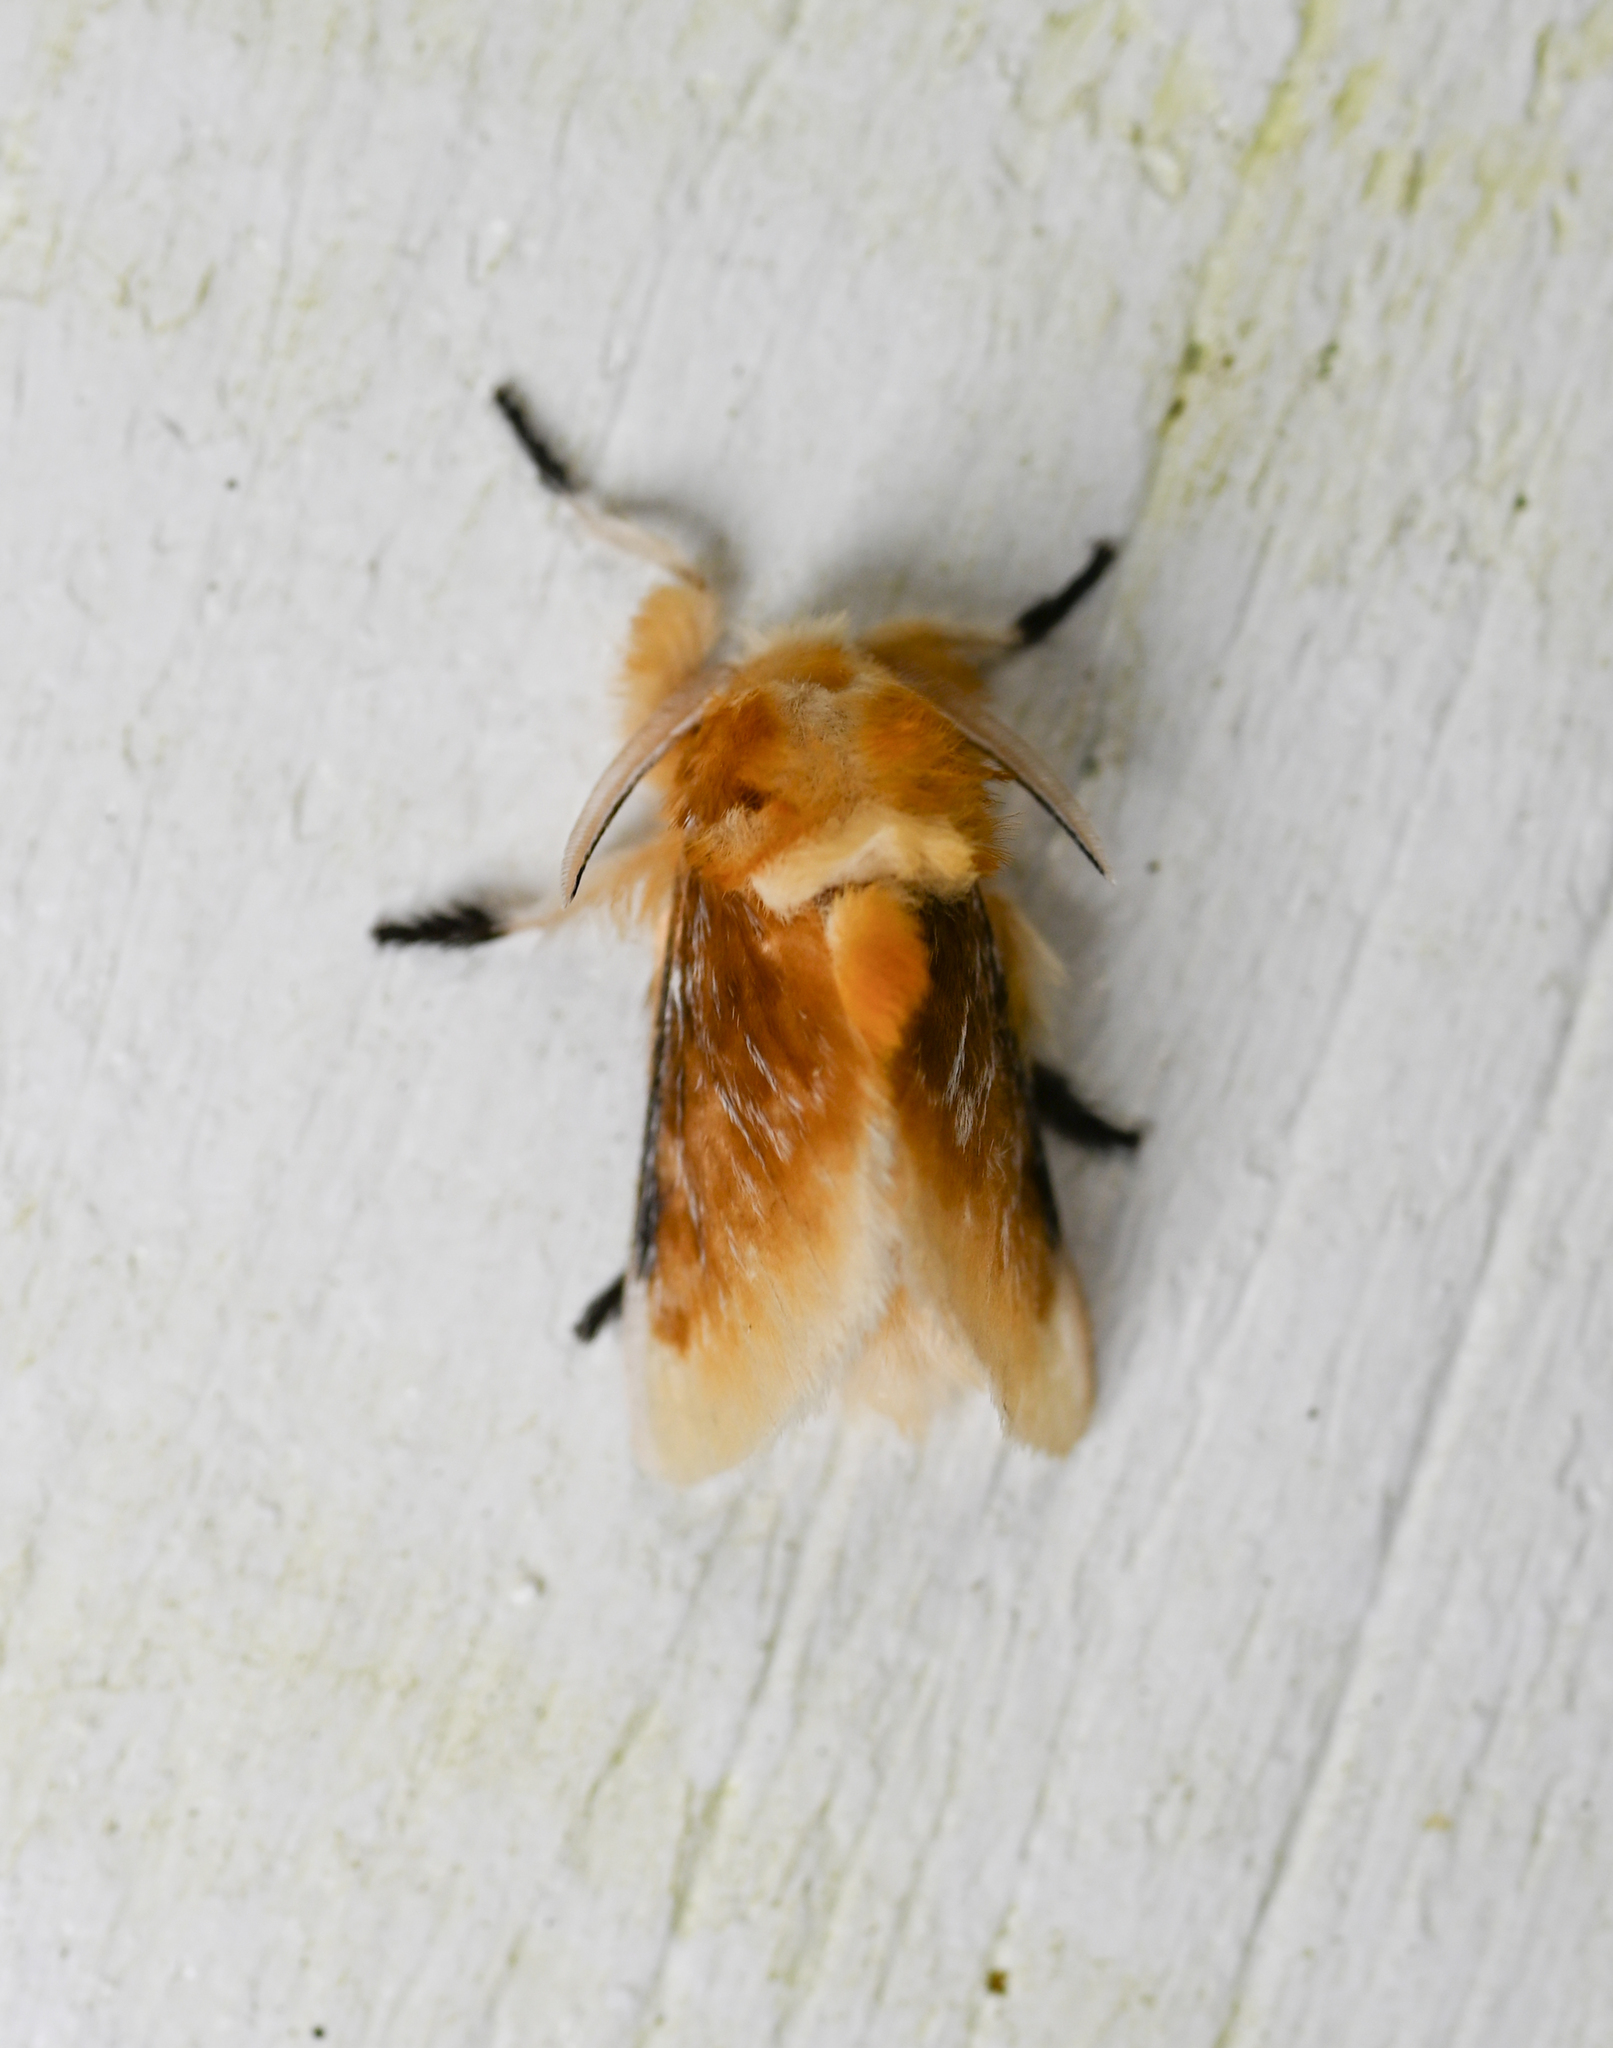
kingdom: Animalia
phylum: Arthropoda
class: Insecta
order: Lepidoptera
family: Megalopygidae
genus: Megalopyge
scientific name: Megalopyge opercularis
